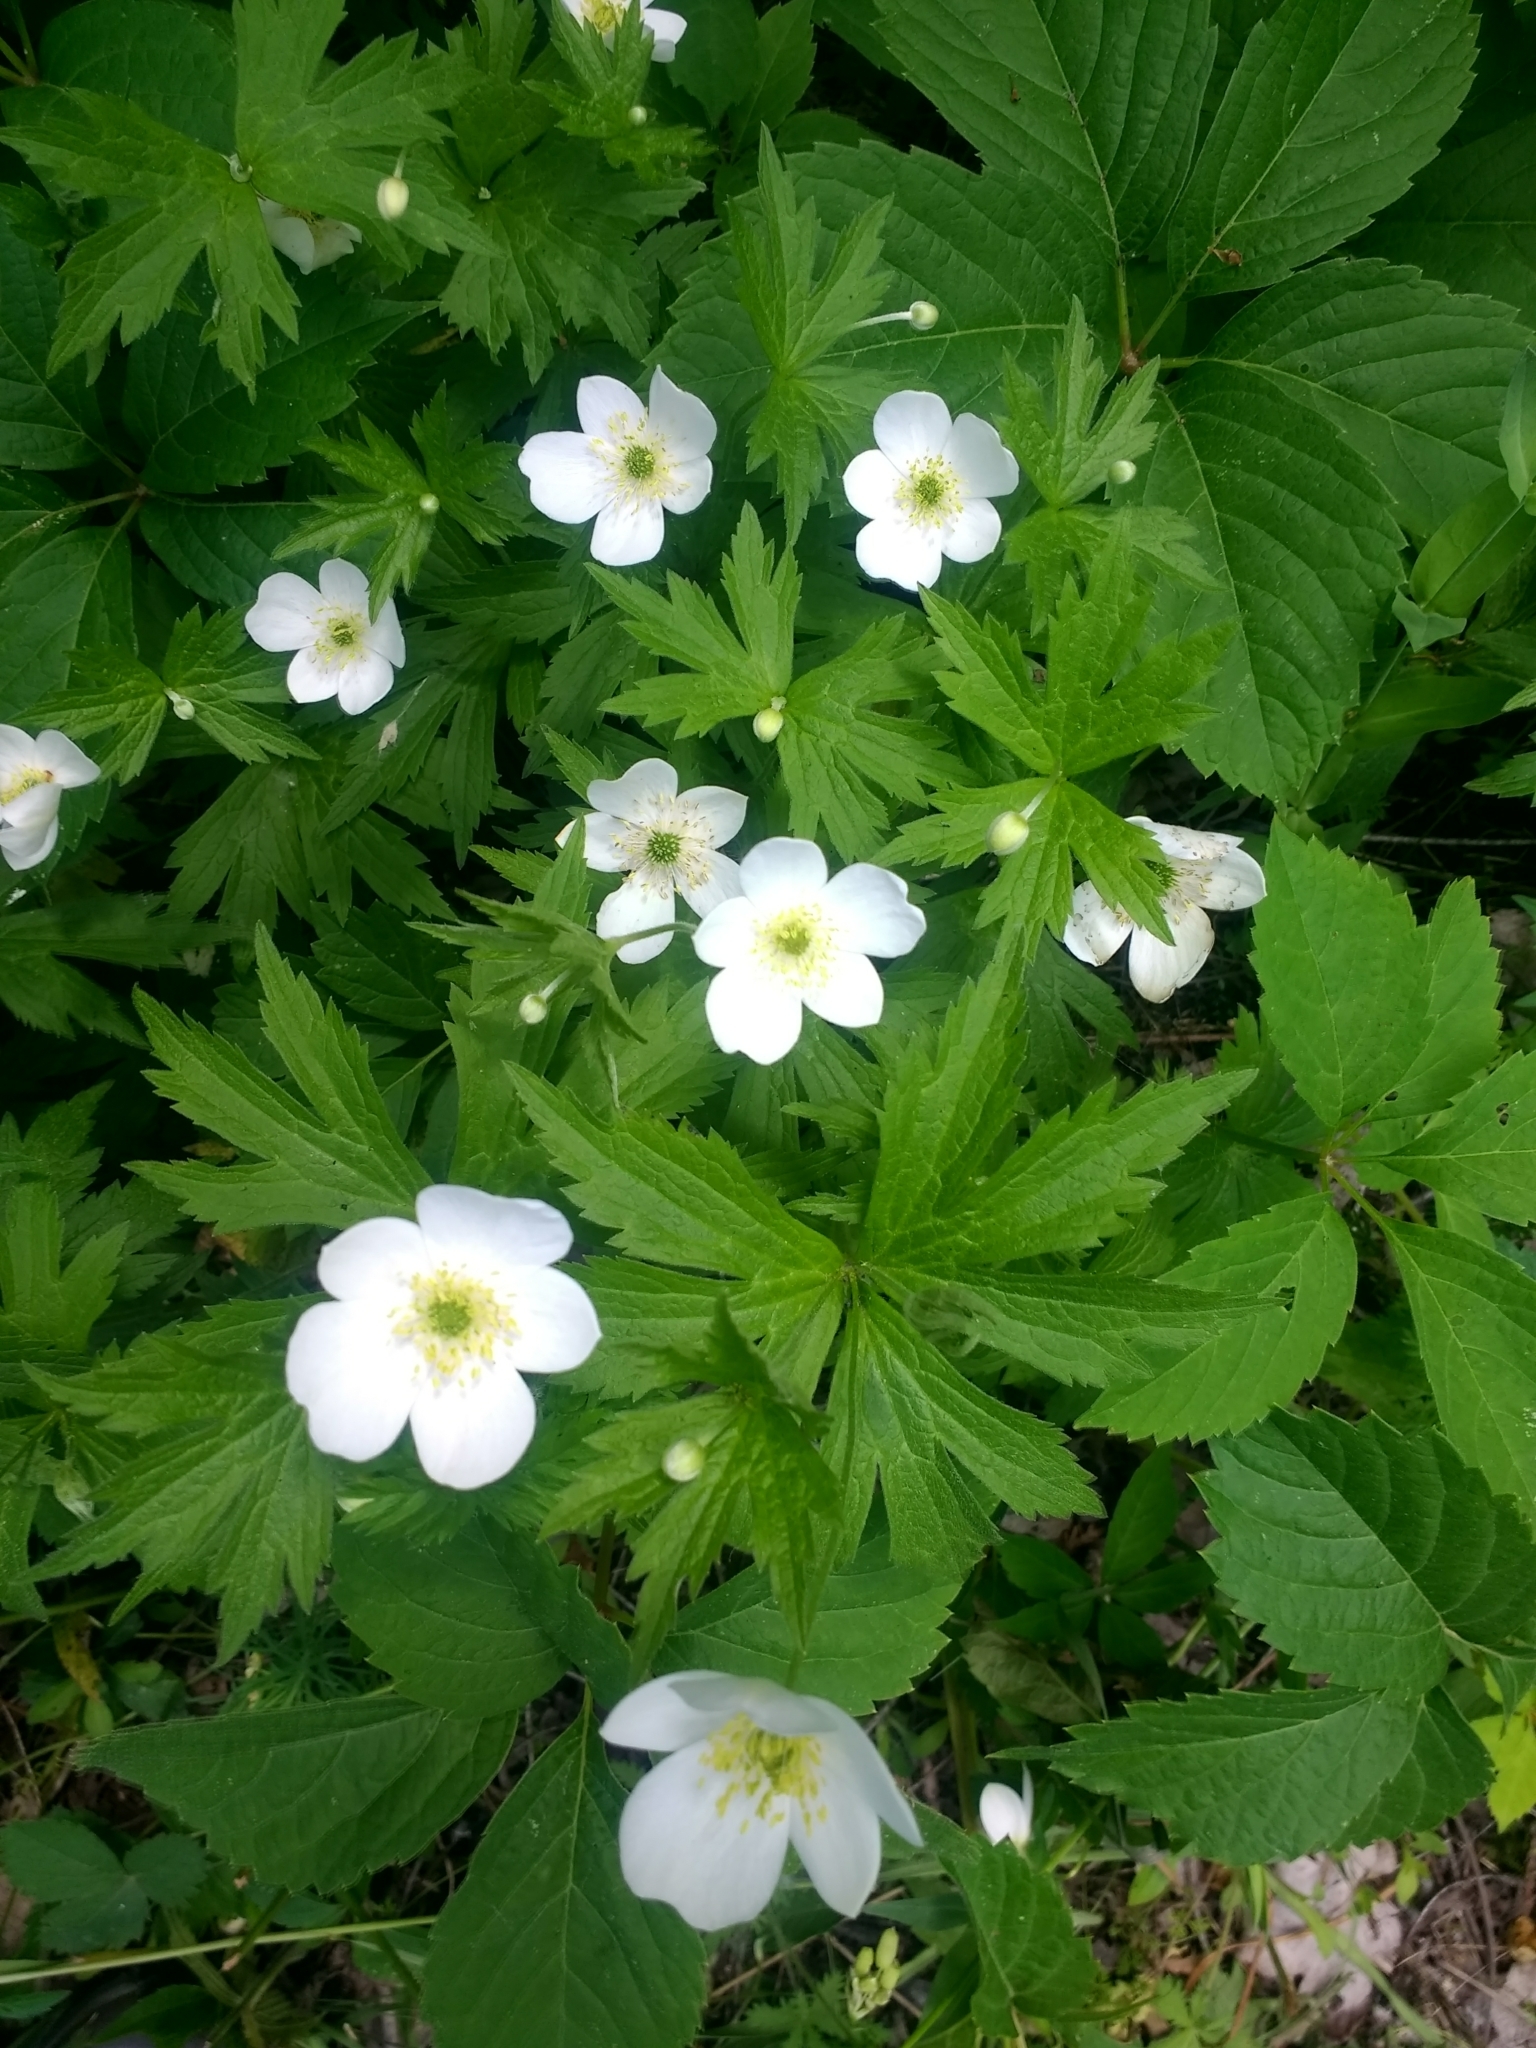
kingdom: Plantae
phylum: Tracheophyta
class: Magnoliopsida
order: Ranunculales
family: Ranunculaceae
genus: Anemonastrum
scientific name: Anemonastrum canadense
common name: Canada anemone
